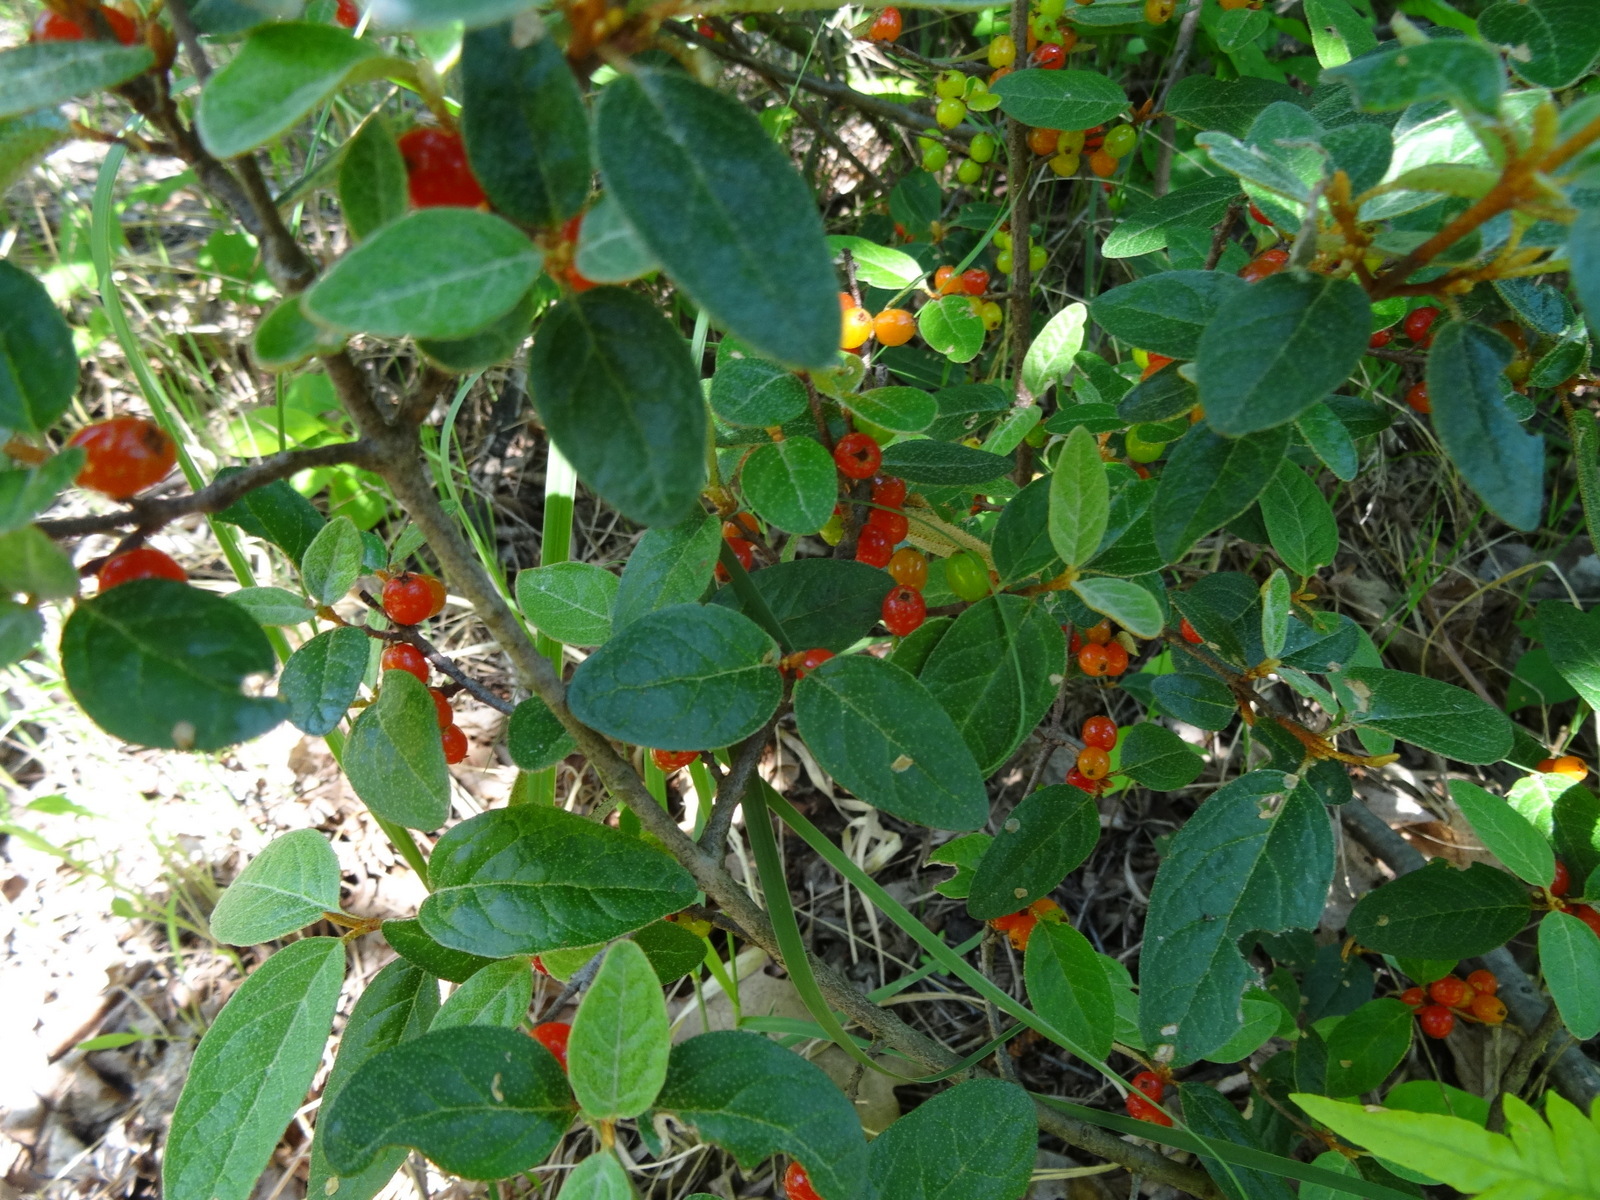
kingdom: Plantae
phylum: Tracheophyta
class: Magnoliopsida
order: Rosales
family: Elaeagnaceae
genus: Shepherdia
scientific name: Shepherdia canadensis
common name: Soapberry
